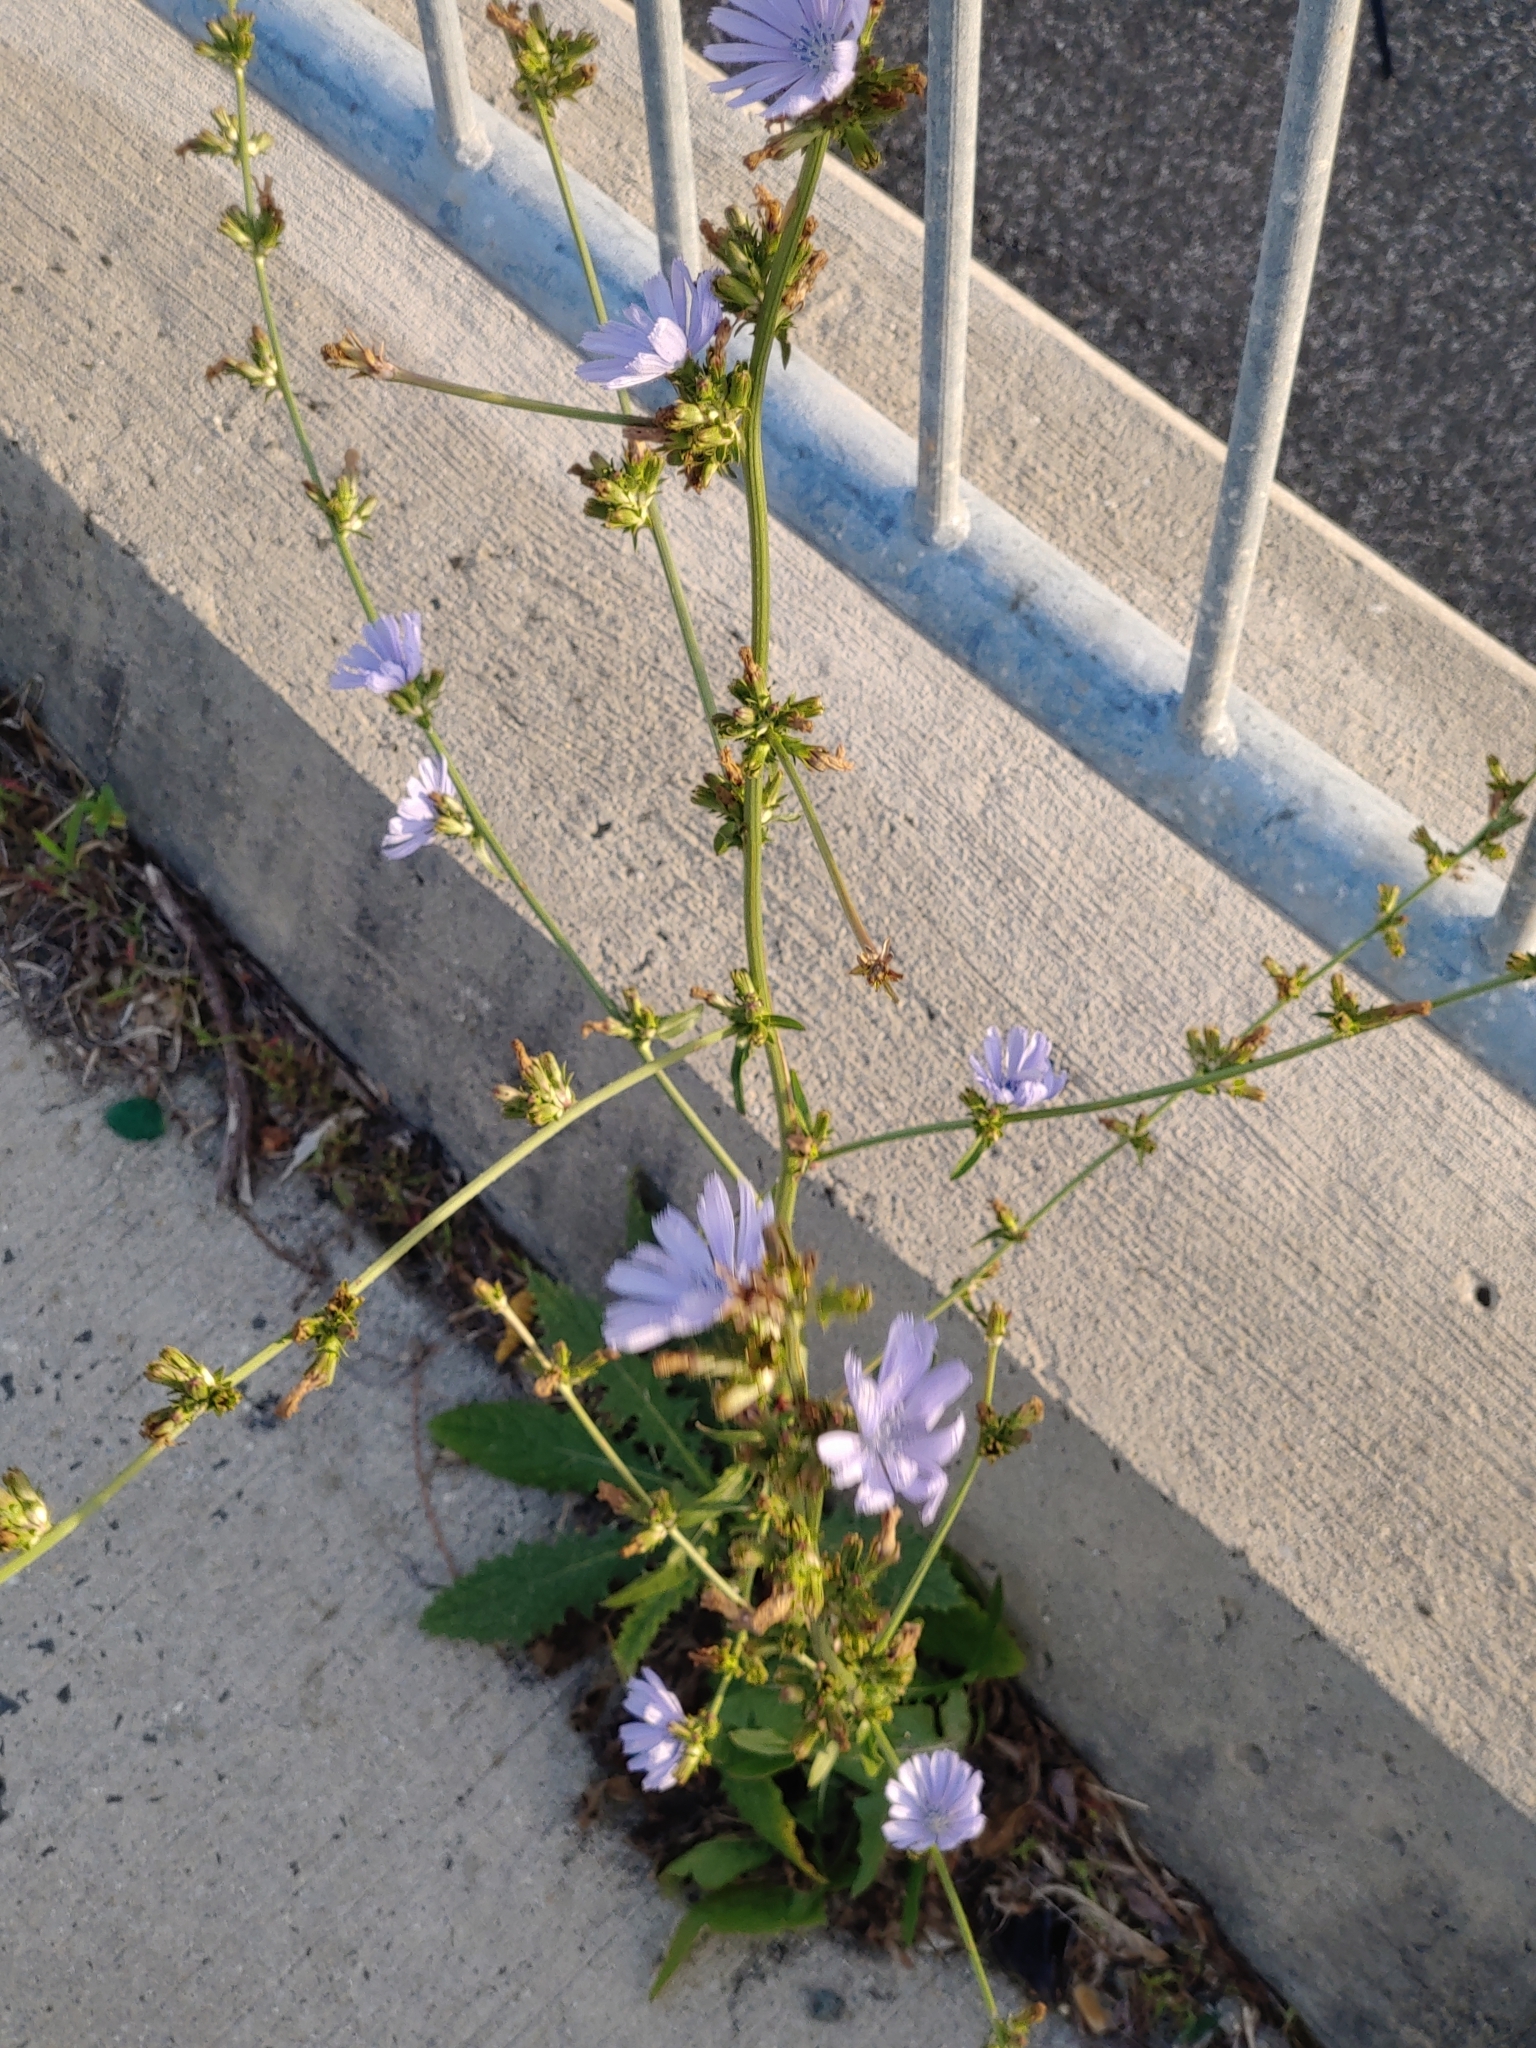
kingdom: Plantae
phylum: Tracheophyta
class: Magnoliopsida
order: Asterales
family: Asteraceae
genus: Cichorium
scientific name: Cichorium intybus
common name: Chicory
